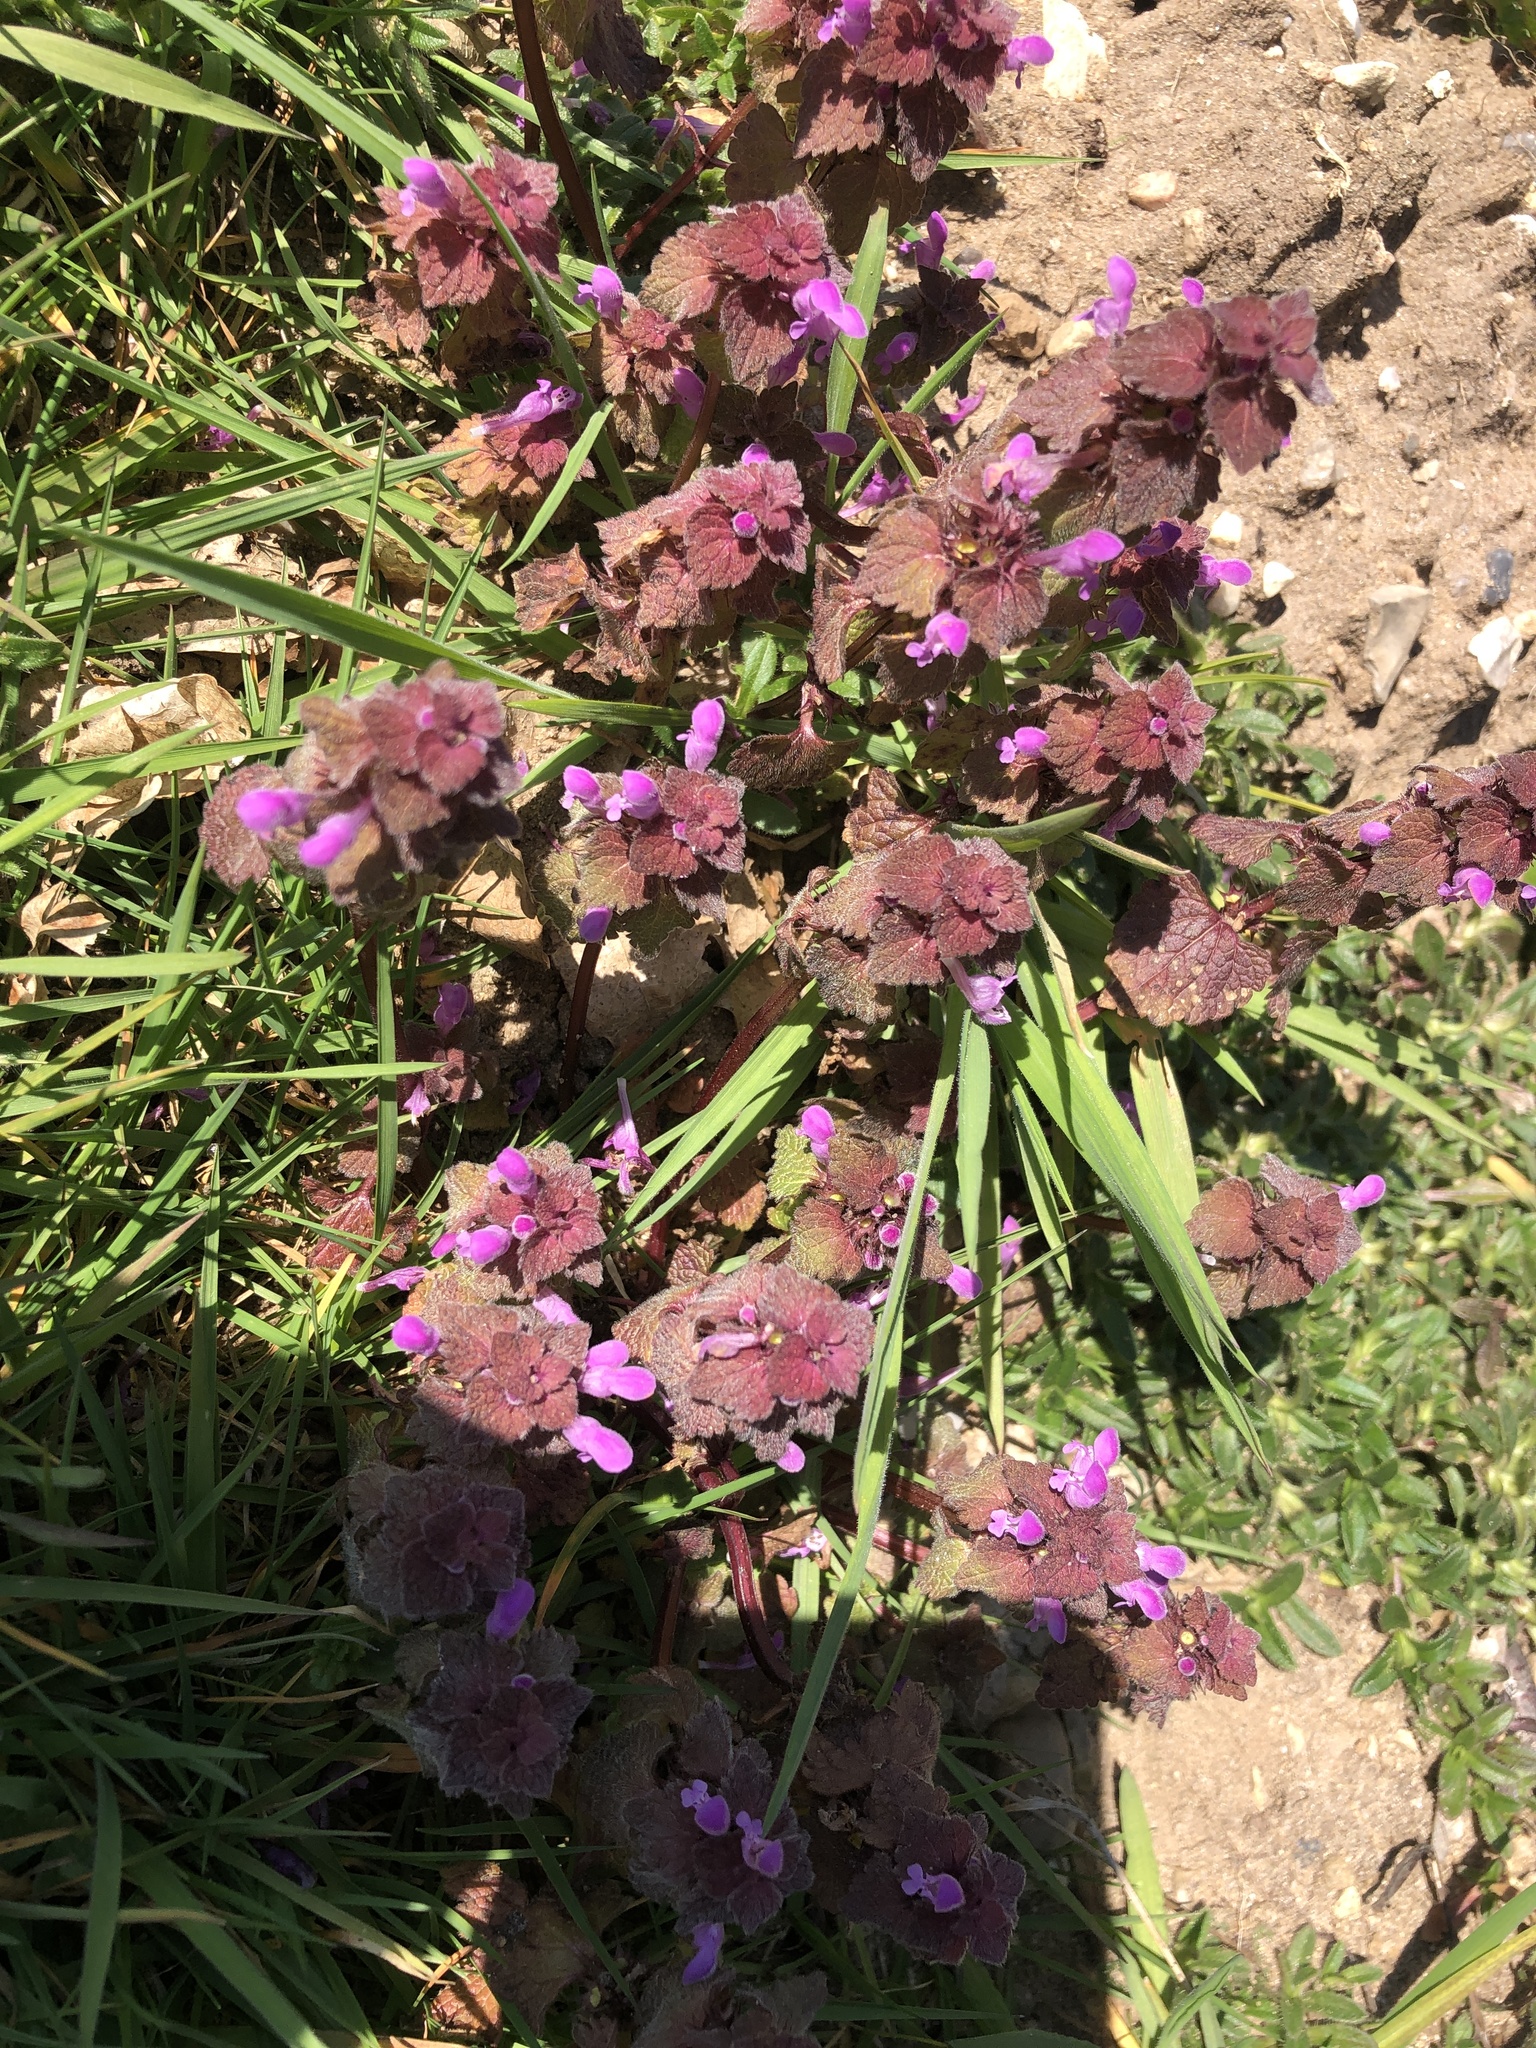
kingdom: Plantae
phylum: Tracheophyta
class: Magnoliopsida
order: Lamiales
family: Lamiaceae
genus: Lamium
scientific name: Lamium purpureum
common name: Red dead-nettle
